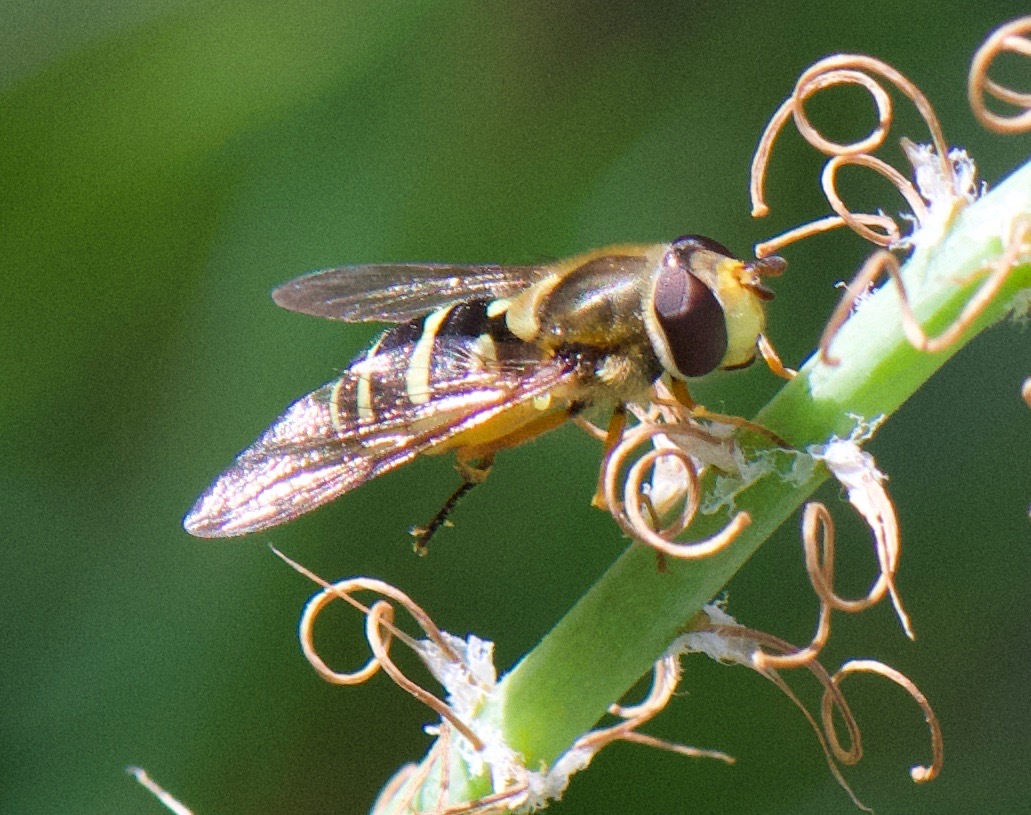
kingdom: Animalia
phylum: Arthropoda
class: Insecta
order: Diptera
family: Syrphidae
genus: Syrphus
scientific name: Syrphus opinator
